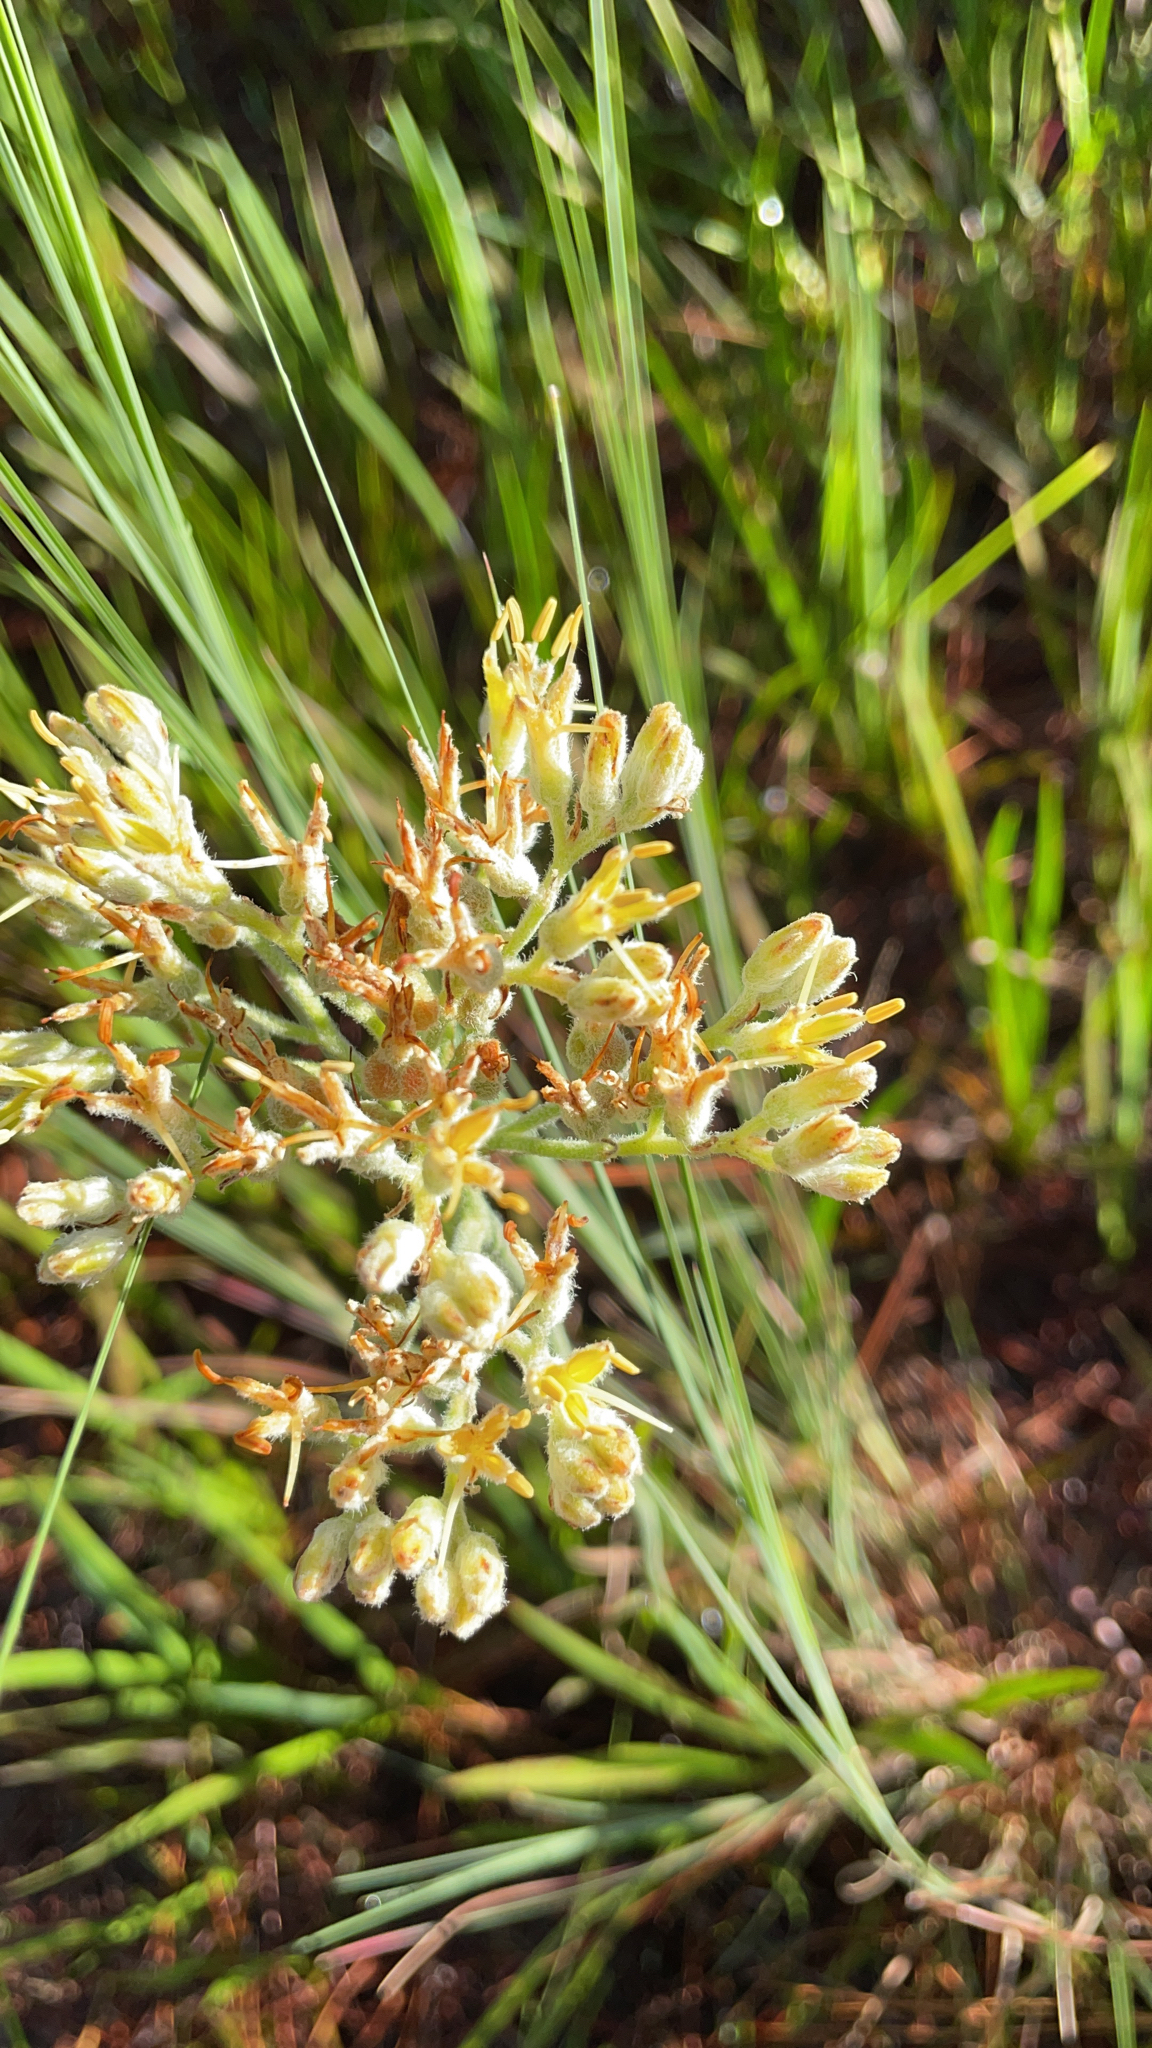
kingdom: Plantae
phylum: Tracheophyta
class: Liliopsida
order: Commelinales
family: Haemodoraceae
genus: Lachnanthes
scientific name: Lachnanthes caroliana
